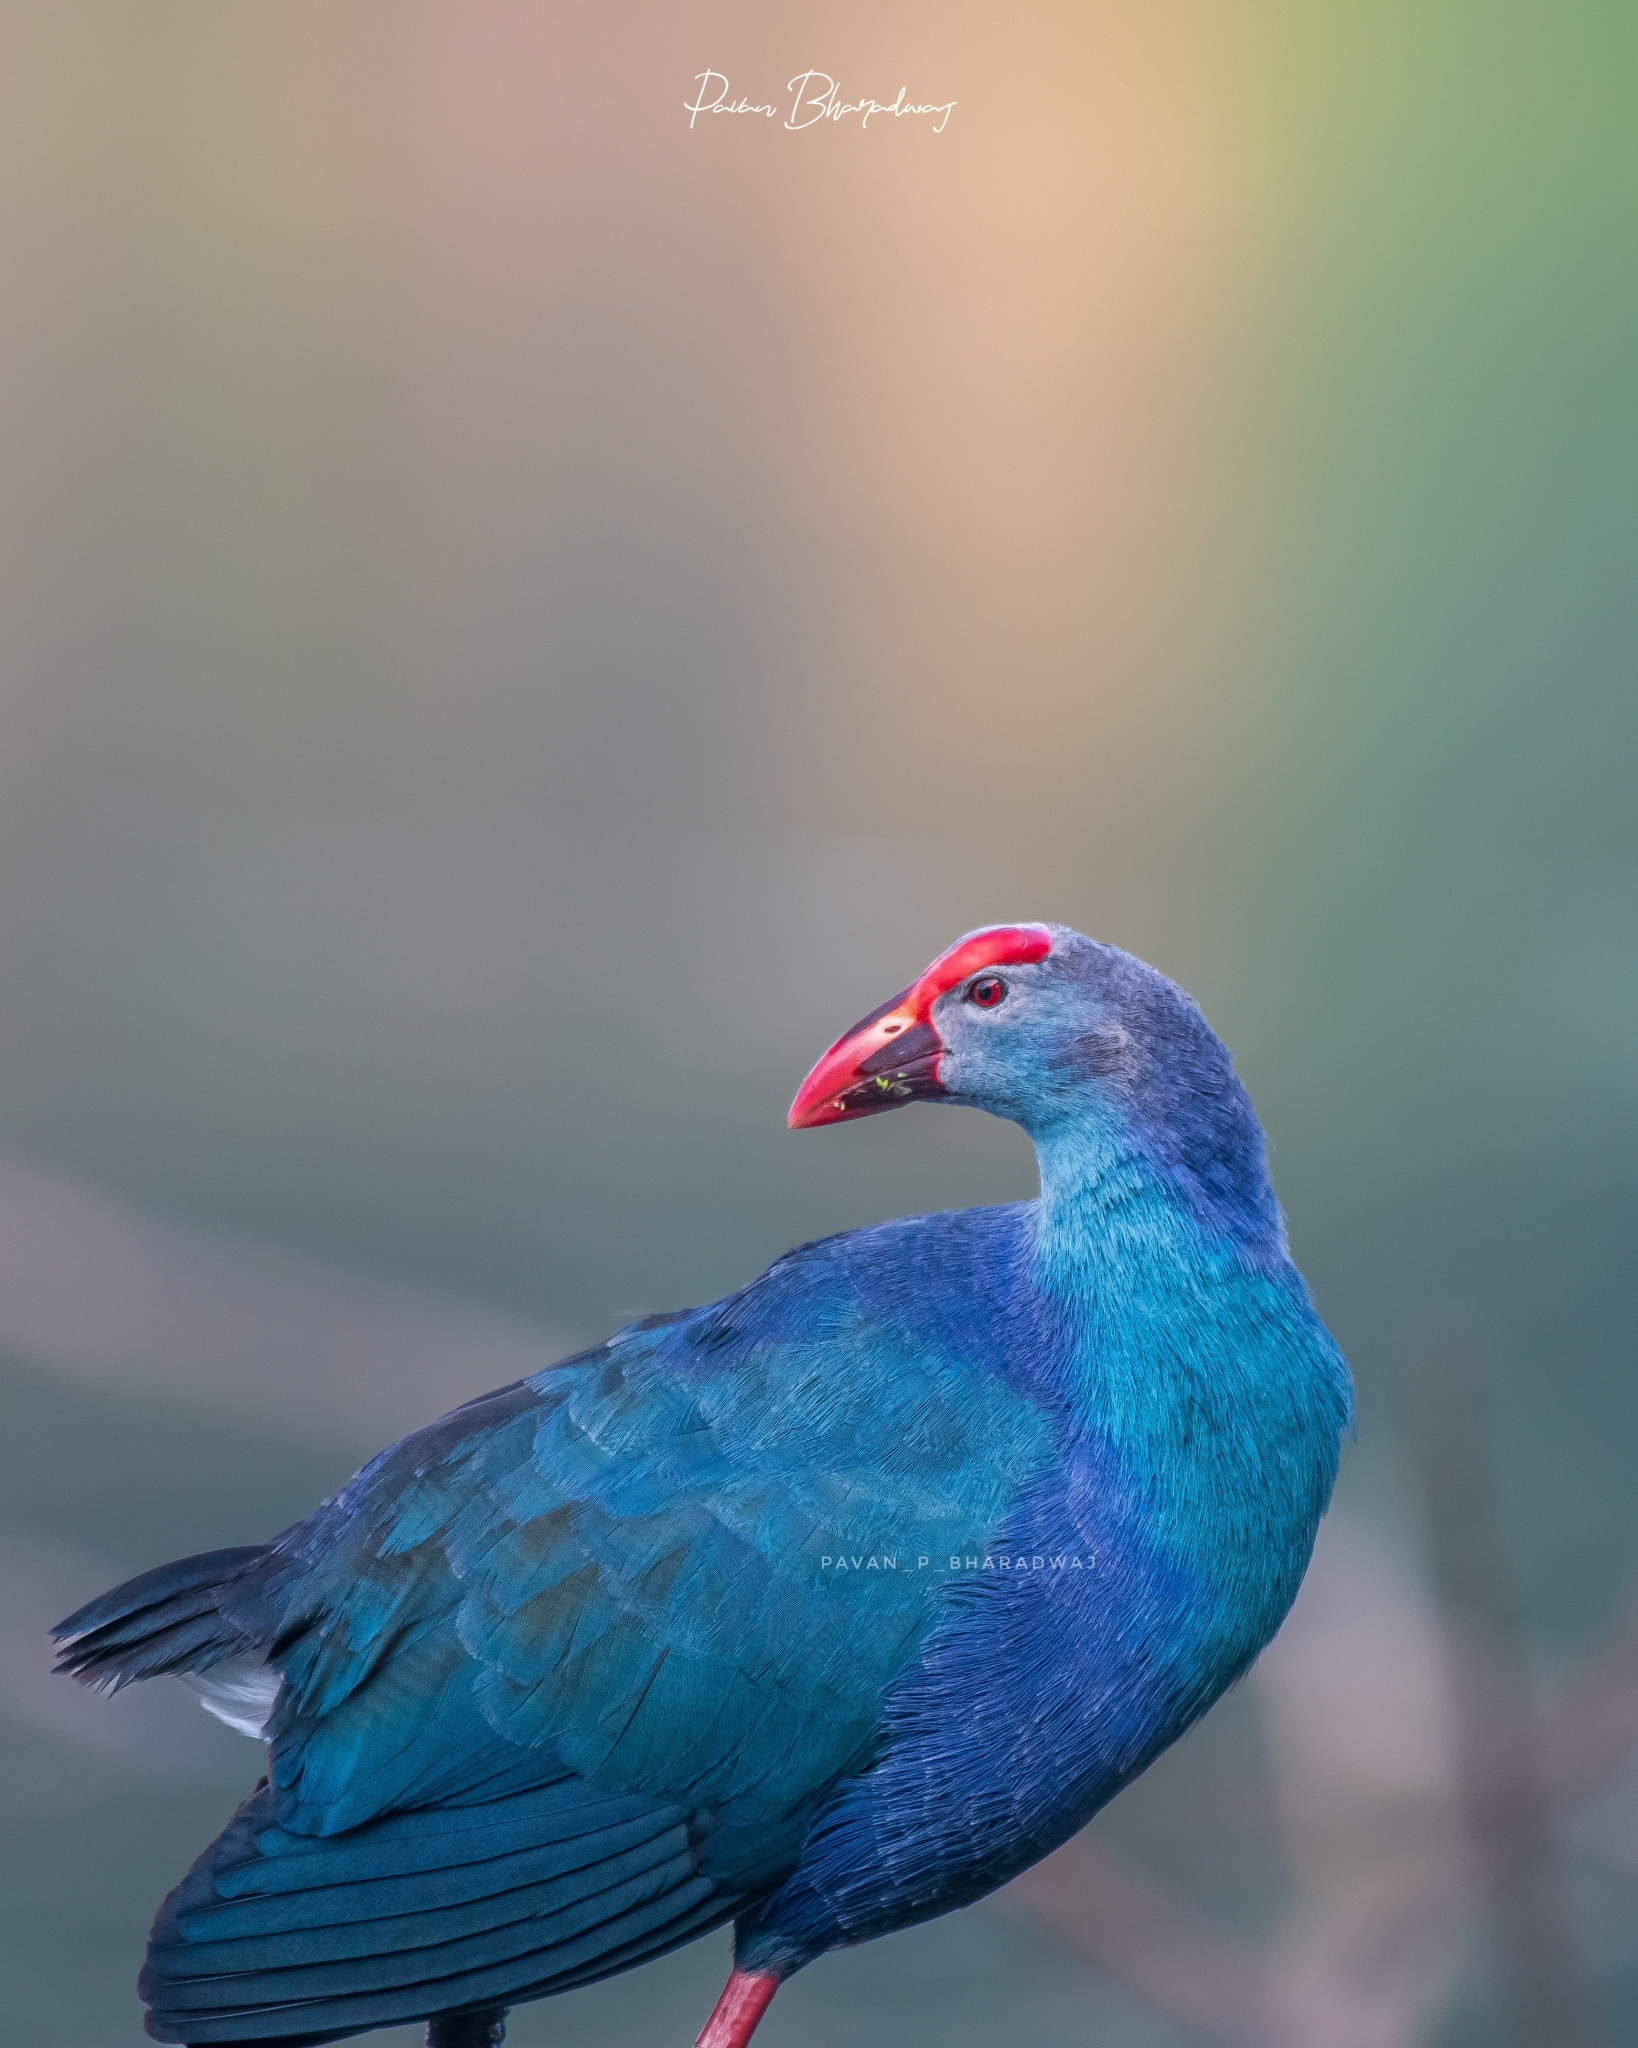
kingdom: Animalia
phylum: Chordata
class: Aves
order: Gruiformes
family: Rallidae
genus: Porphyrio
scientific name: Porphyrio porphyrio
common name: Purple swamphen
